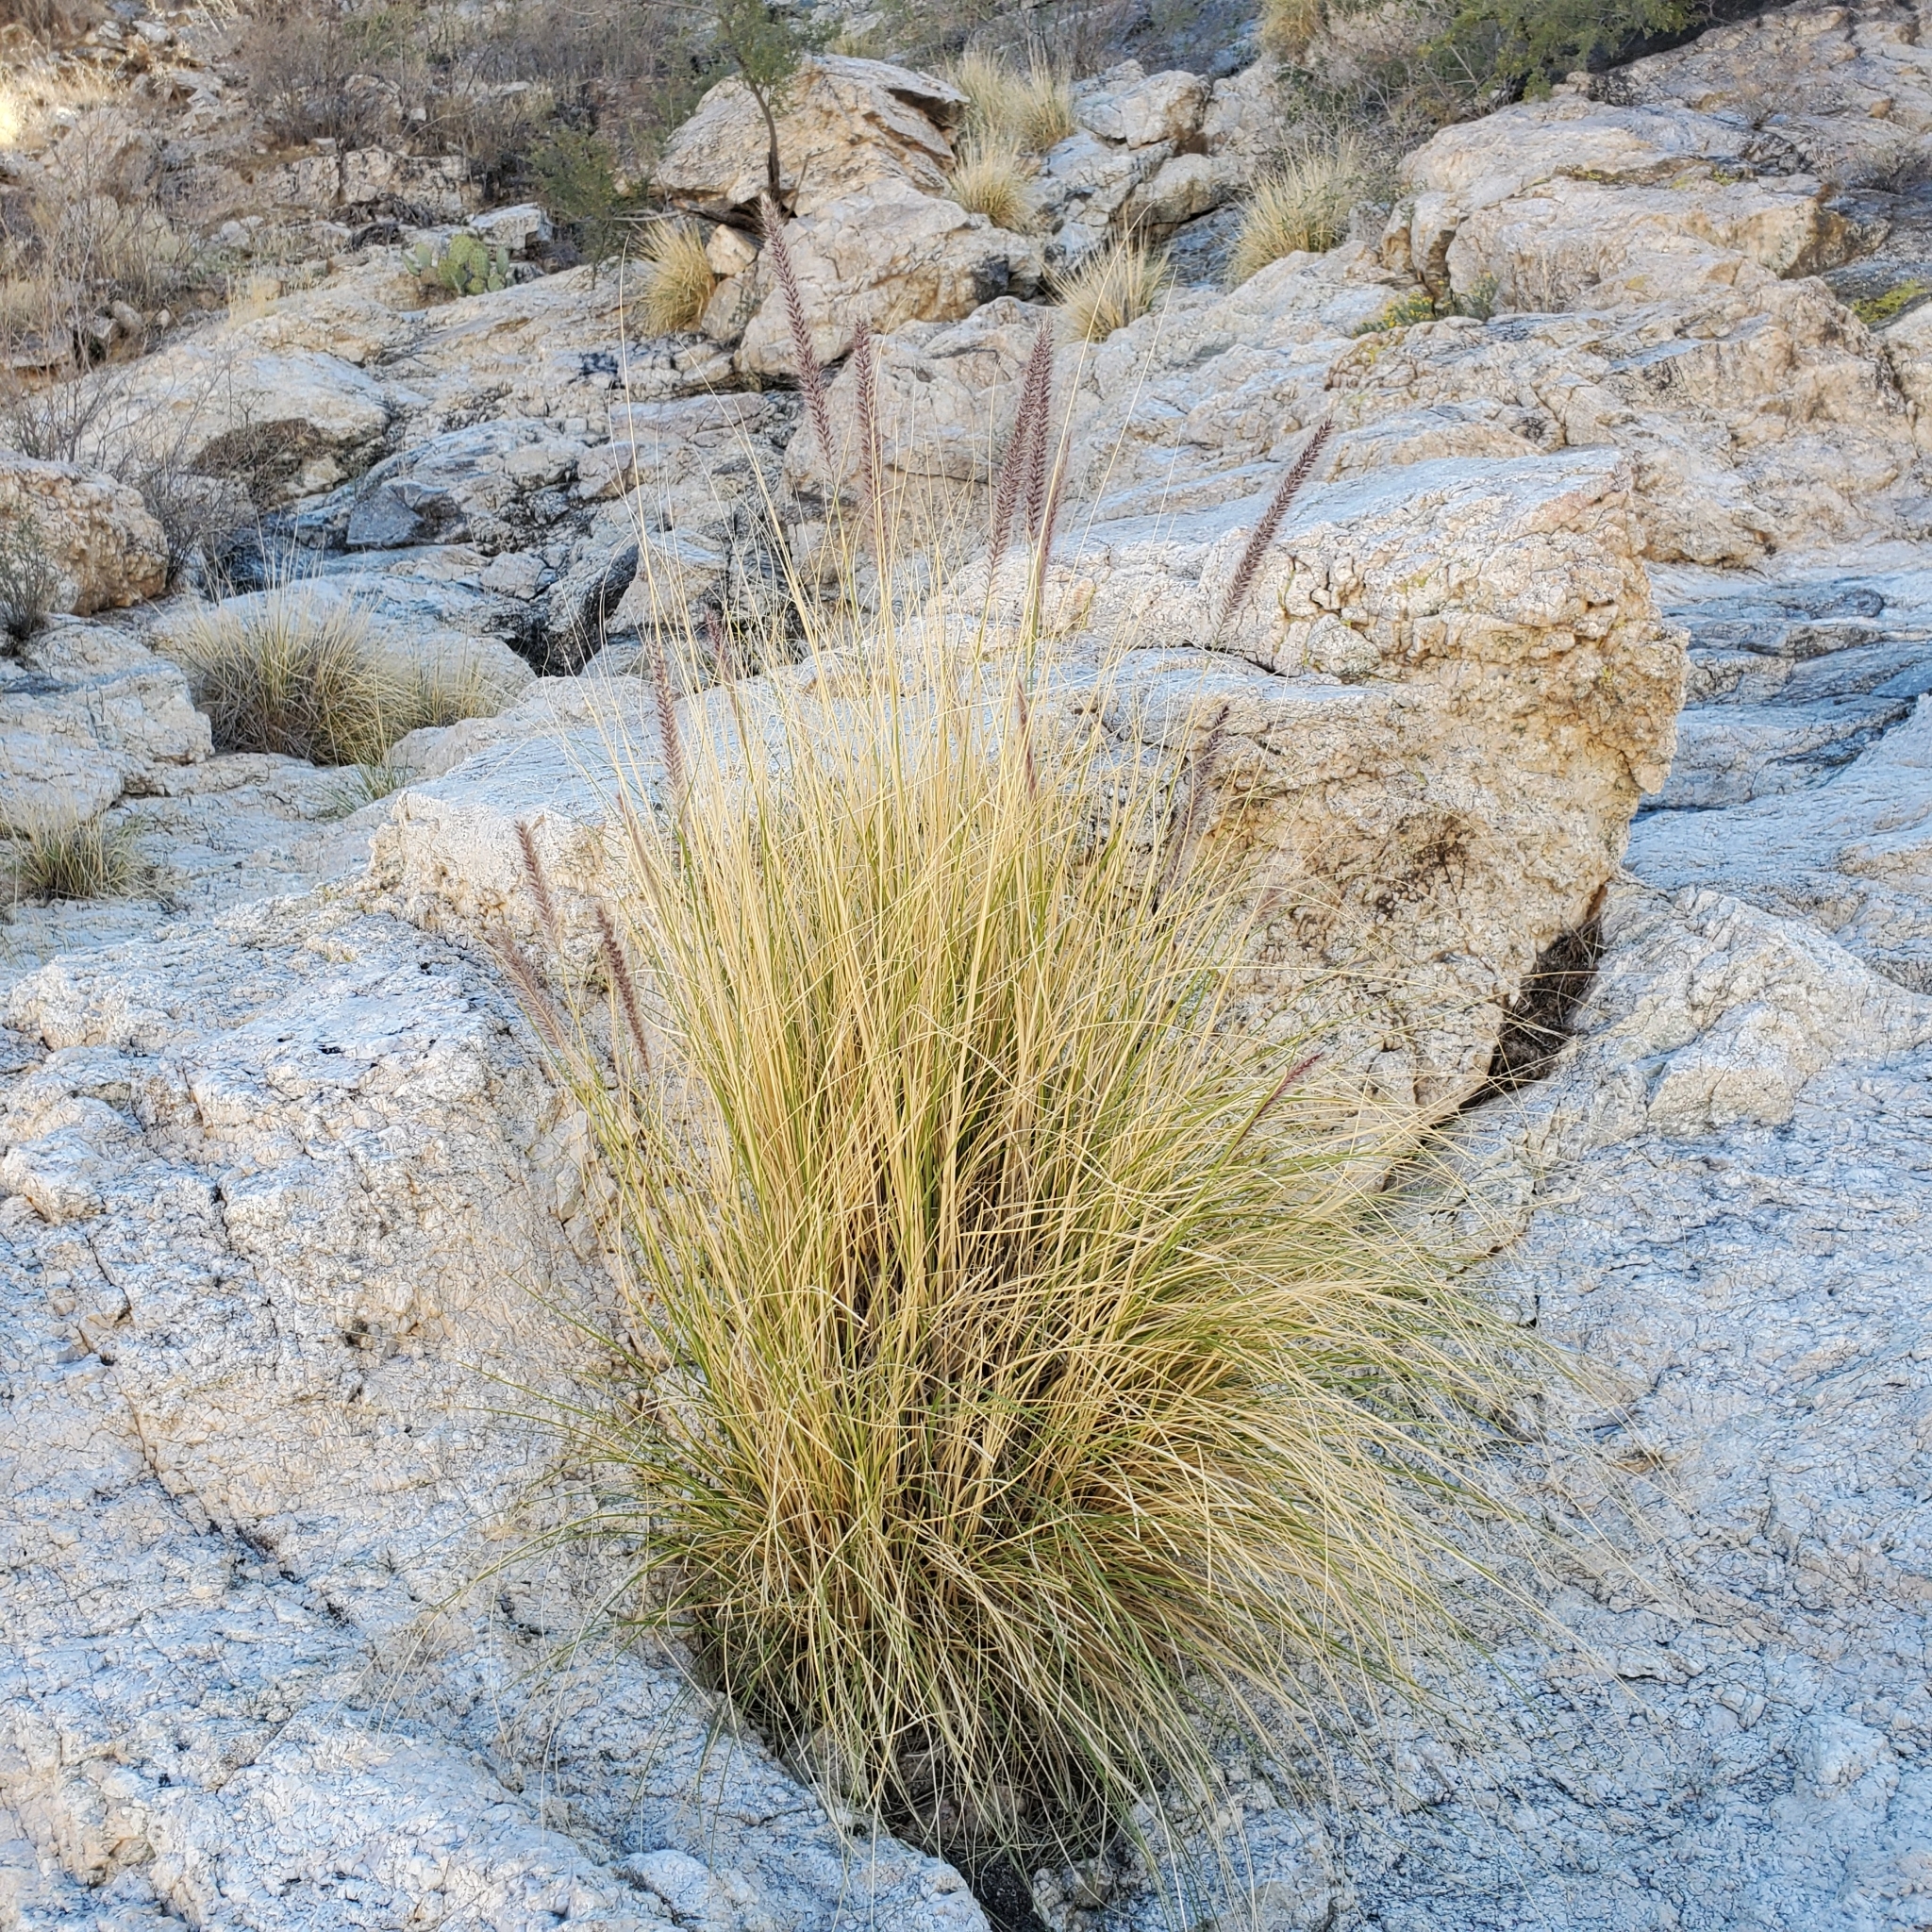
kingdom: Plantae
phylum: Tracheophyta
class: Liliopsida
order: Poales
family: Poaceae
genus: Cenchrus
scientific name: Cenchrus setaceus
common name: Crimson fountaingrass
